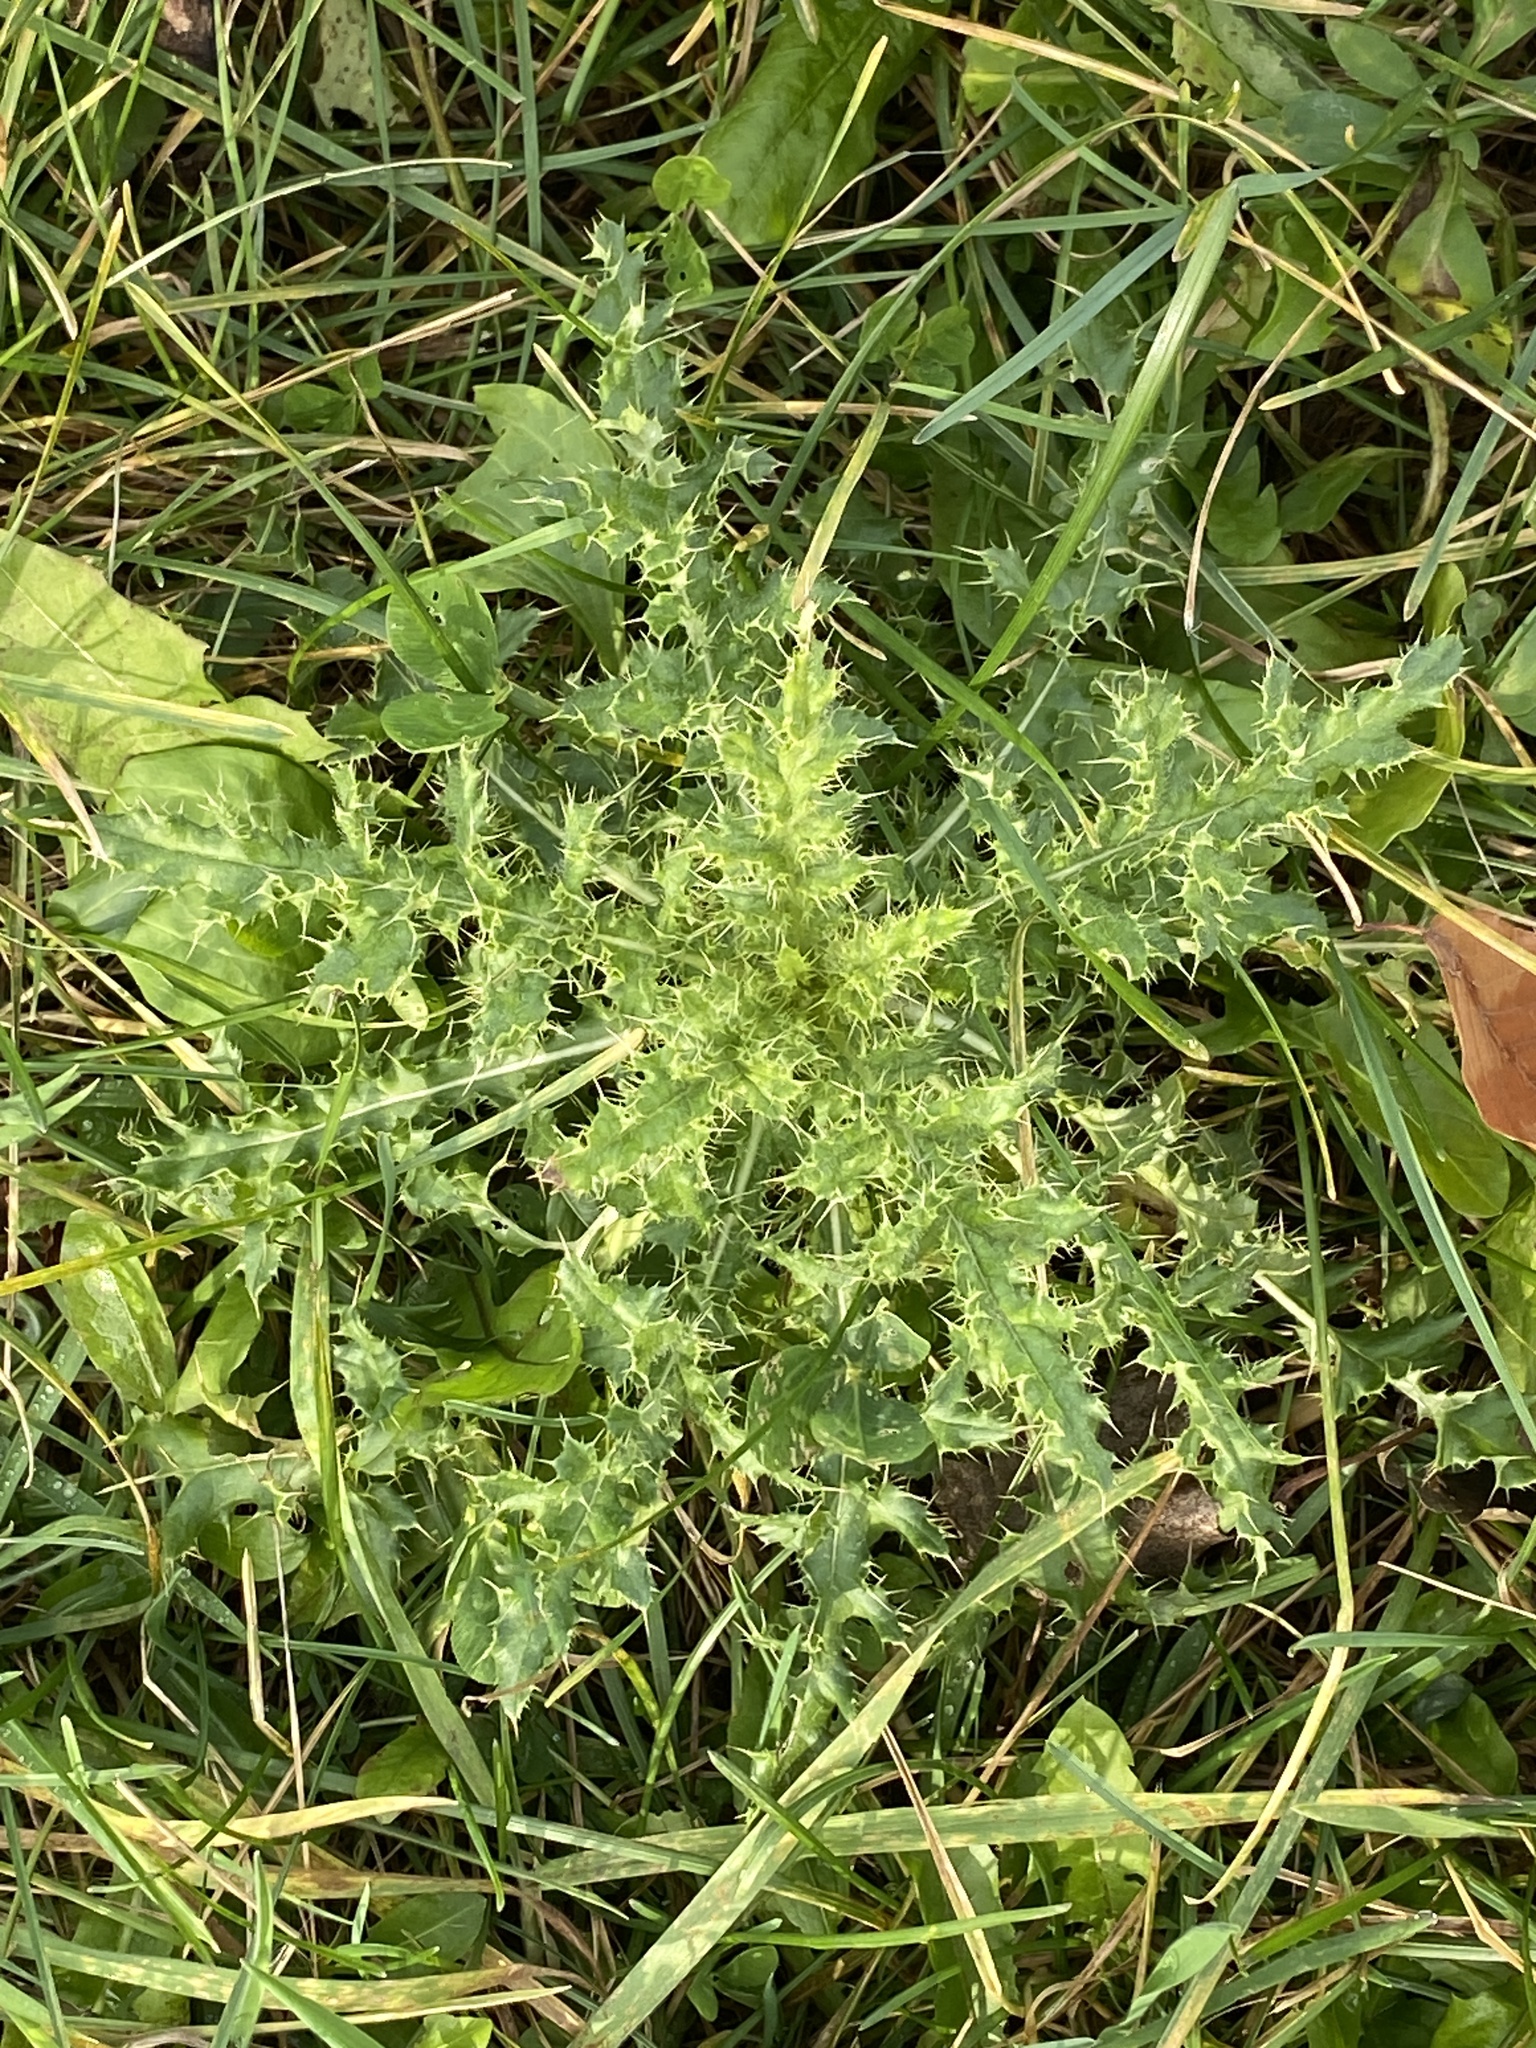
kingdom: Plantae
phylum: Tracheophyta
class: Magnoliopsida
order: Asterales
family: Asteraceae
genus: Cirsium
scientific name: Cirsium arvense
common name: Creeping thistle
